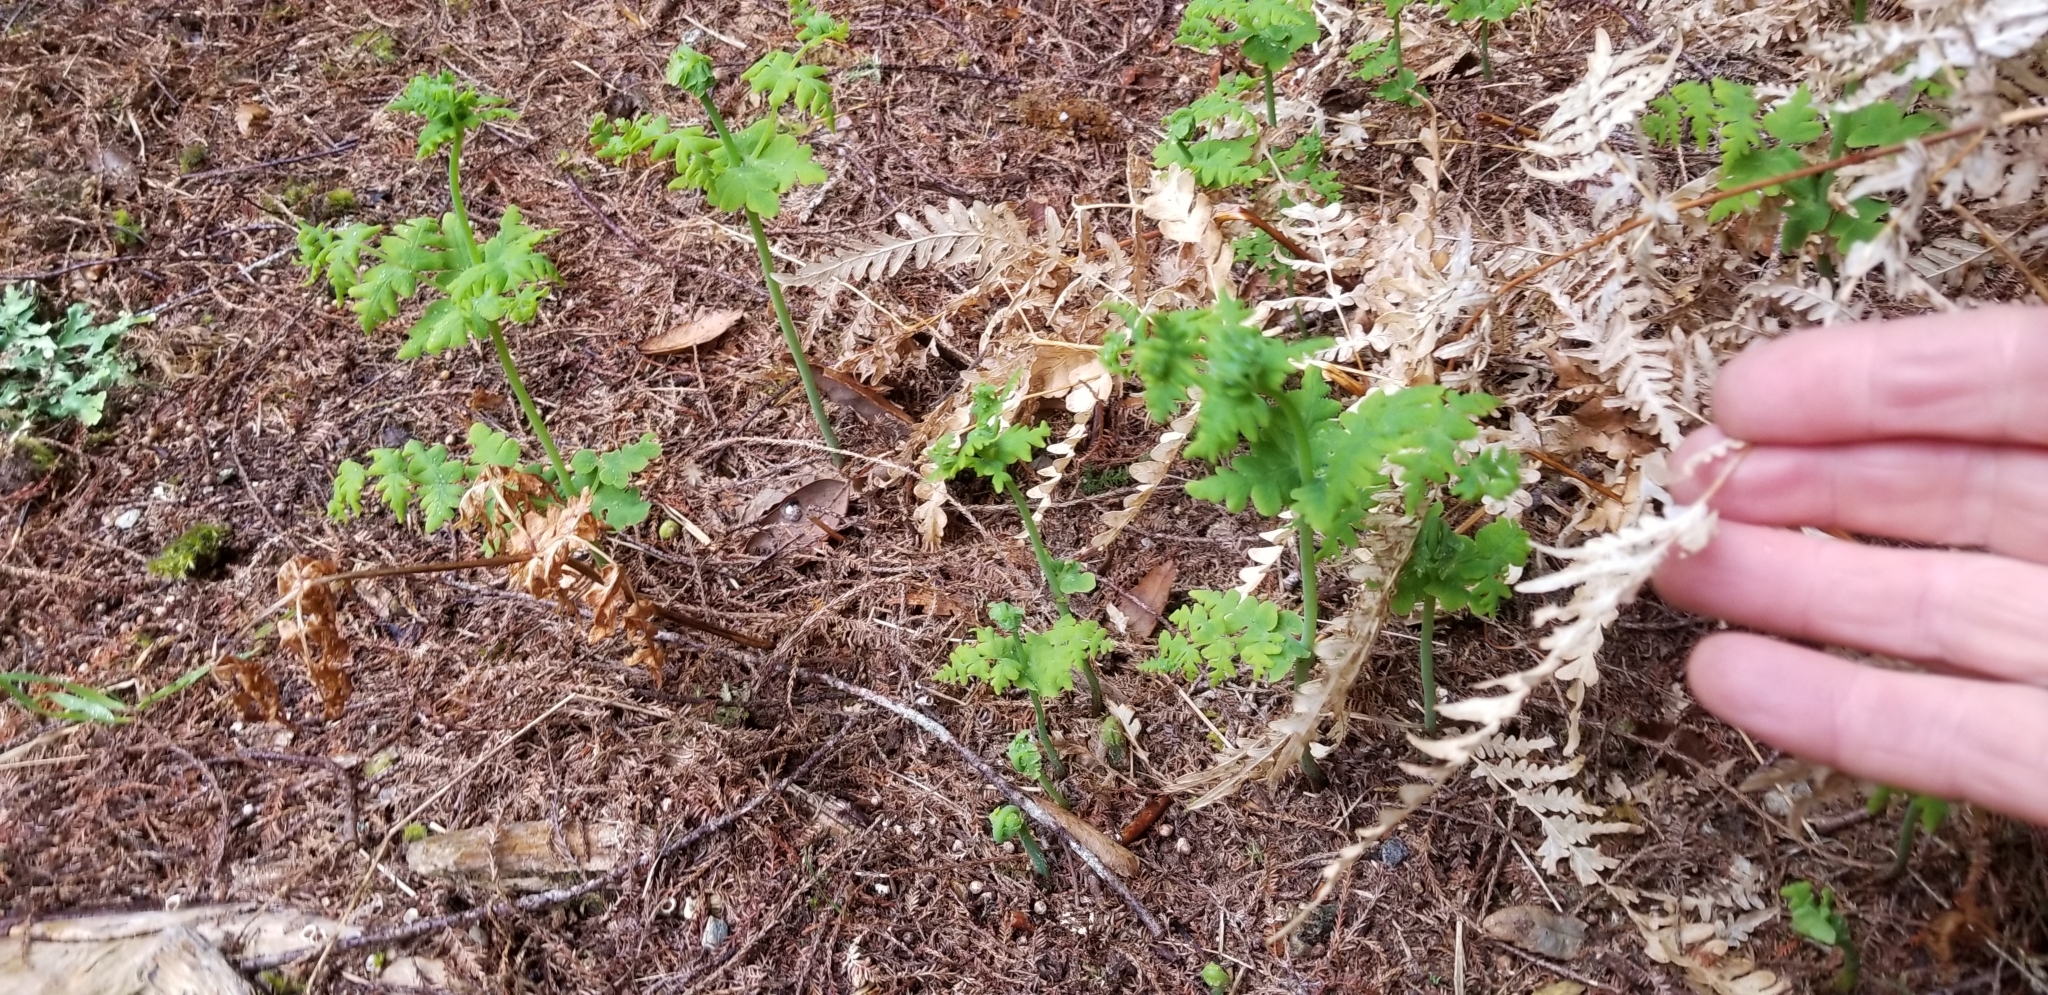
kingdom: Plantae
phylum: Tracheophyta
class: Polypodiopsida
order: Polypodiales
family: Dennstaedtiaceae
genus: Histiopteris
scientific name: Histiopteris incisa
